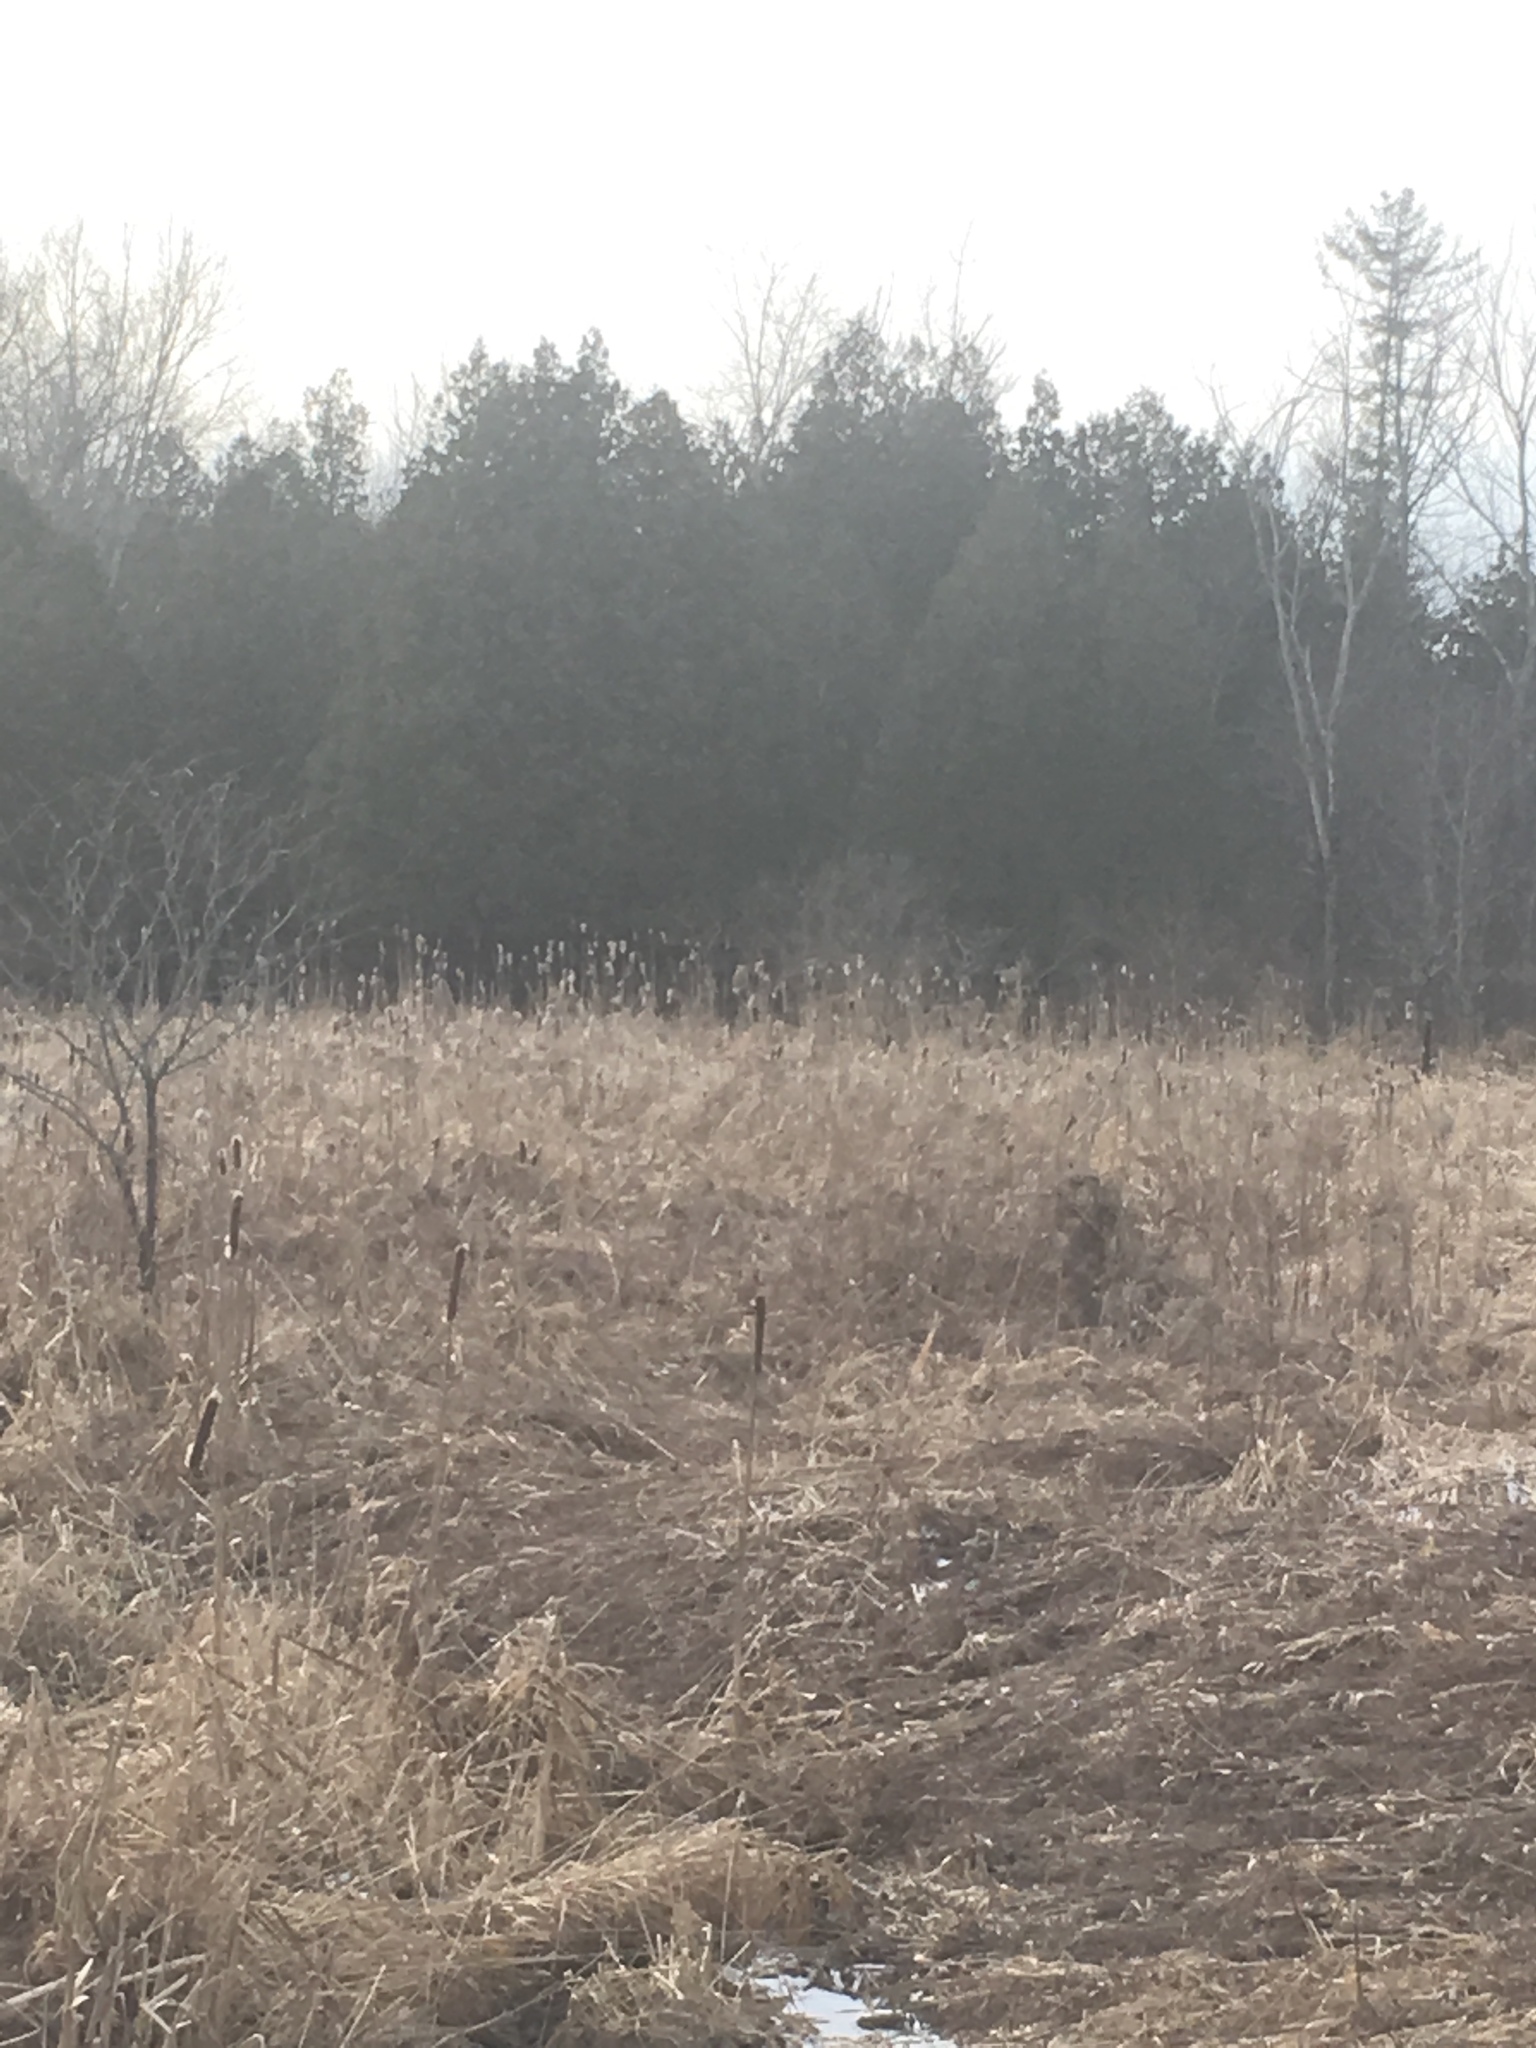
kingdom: Plantae
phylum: Tracheophyta
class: Pinopsida
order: Pinales
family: Cupressaceae
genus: Thuja
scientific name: Thuja occidentalis
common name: Northern white-cedar
